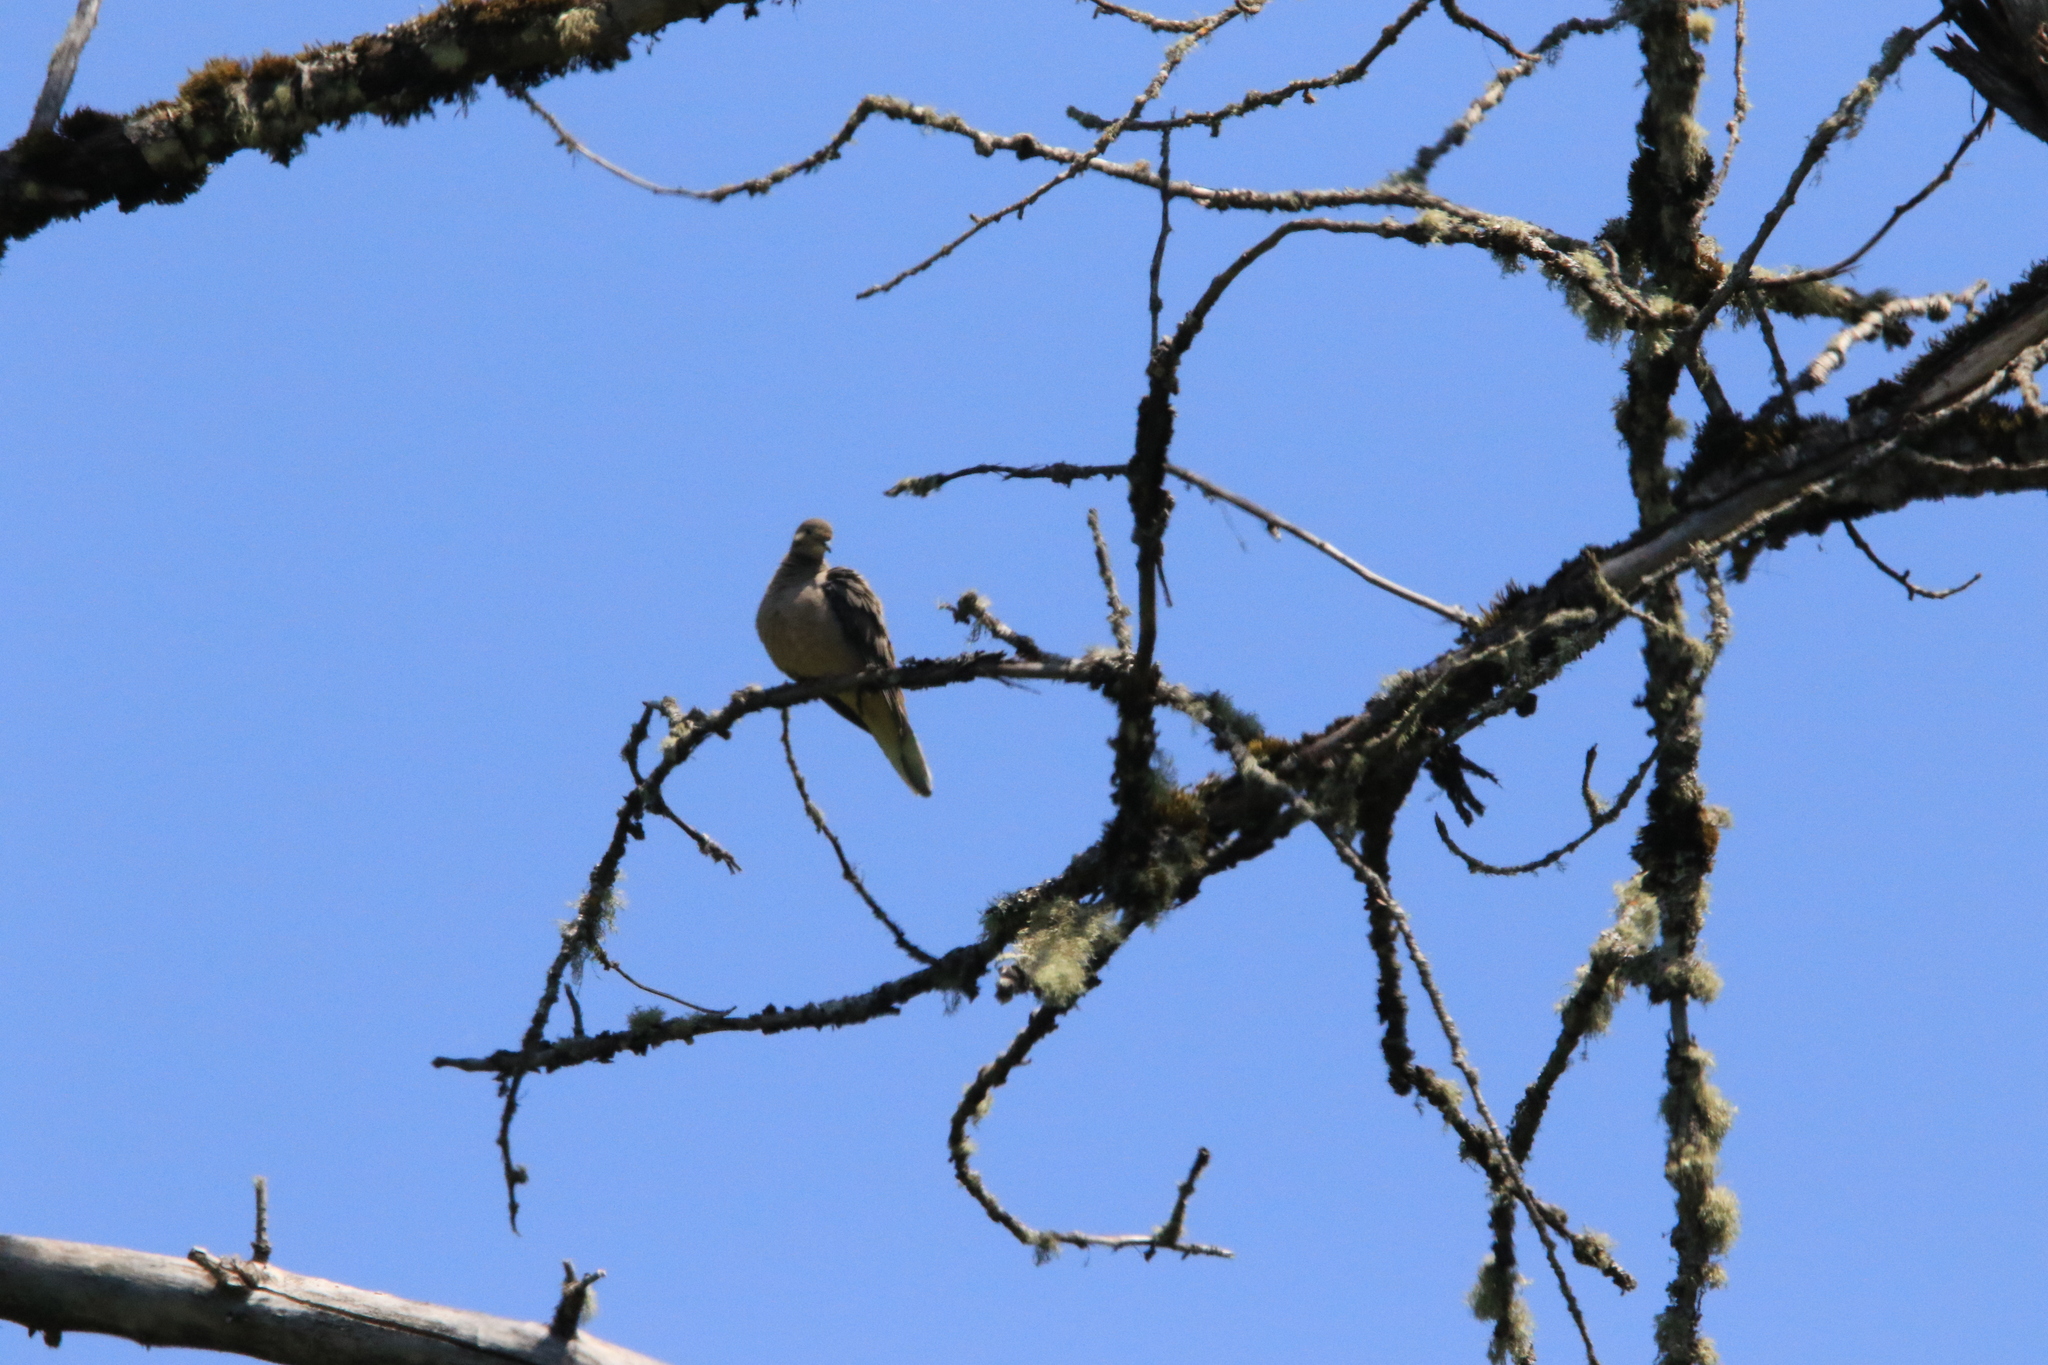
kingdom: Animalia
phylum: Chordata
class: Aves
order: Columbiformes
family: Columbidae
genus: Zenaida
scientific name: Zenaida macroura
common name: Mourning dove
